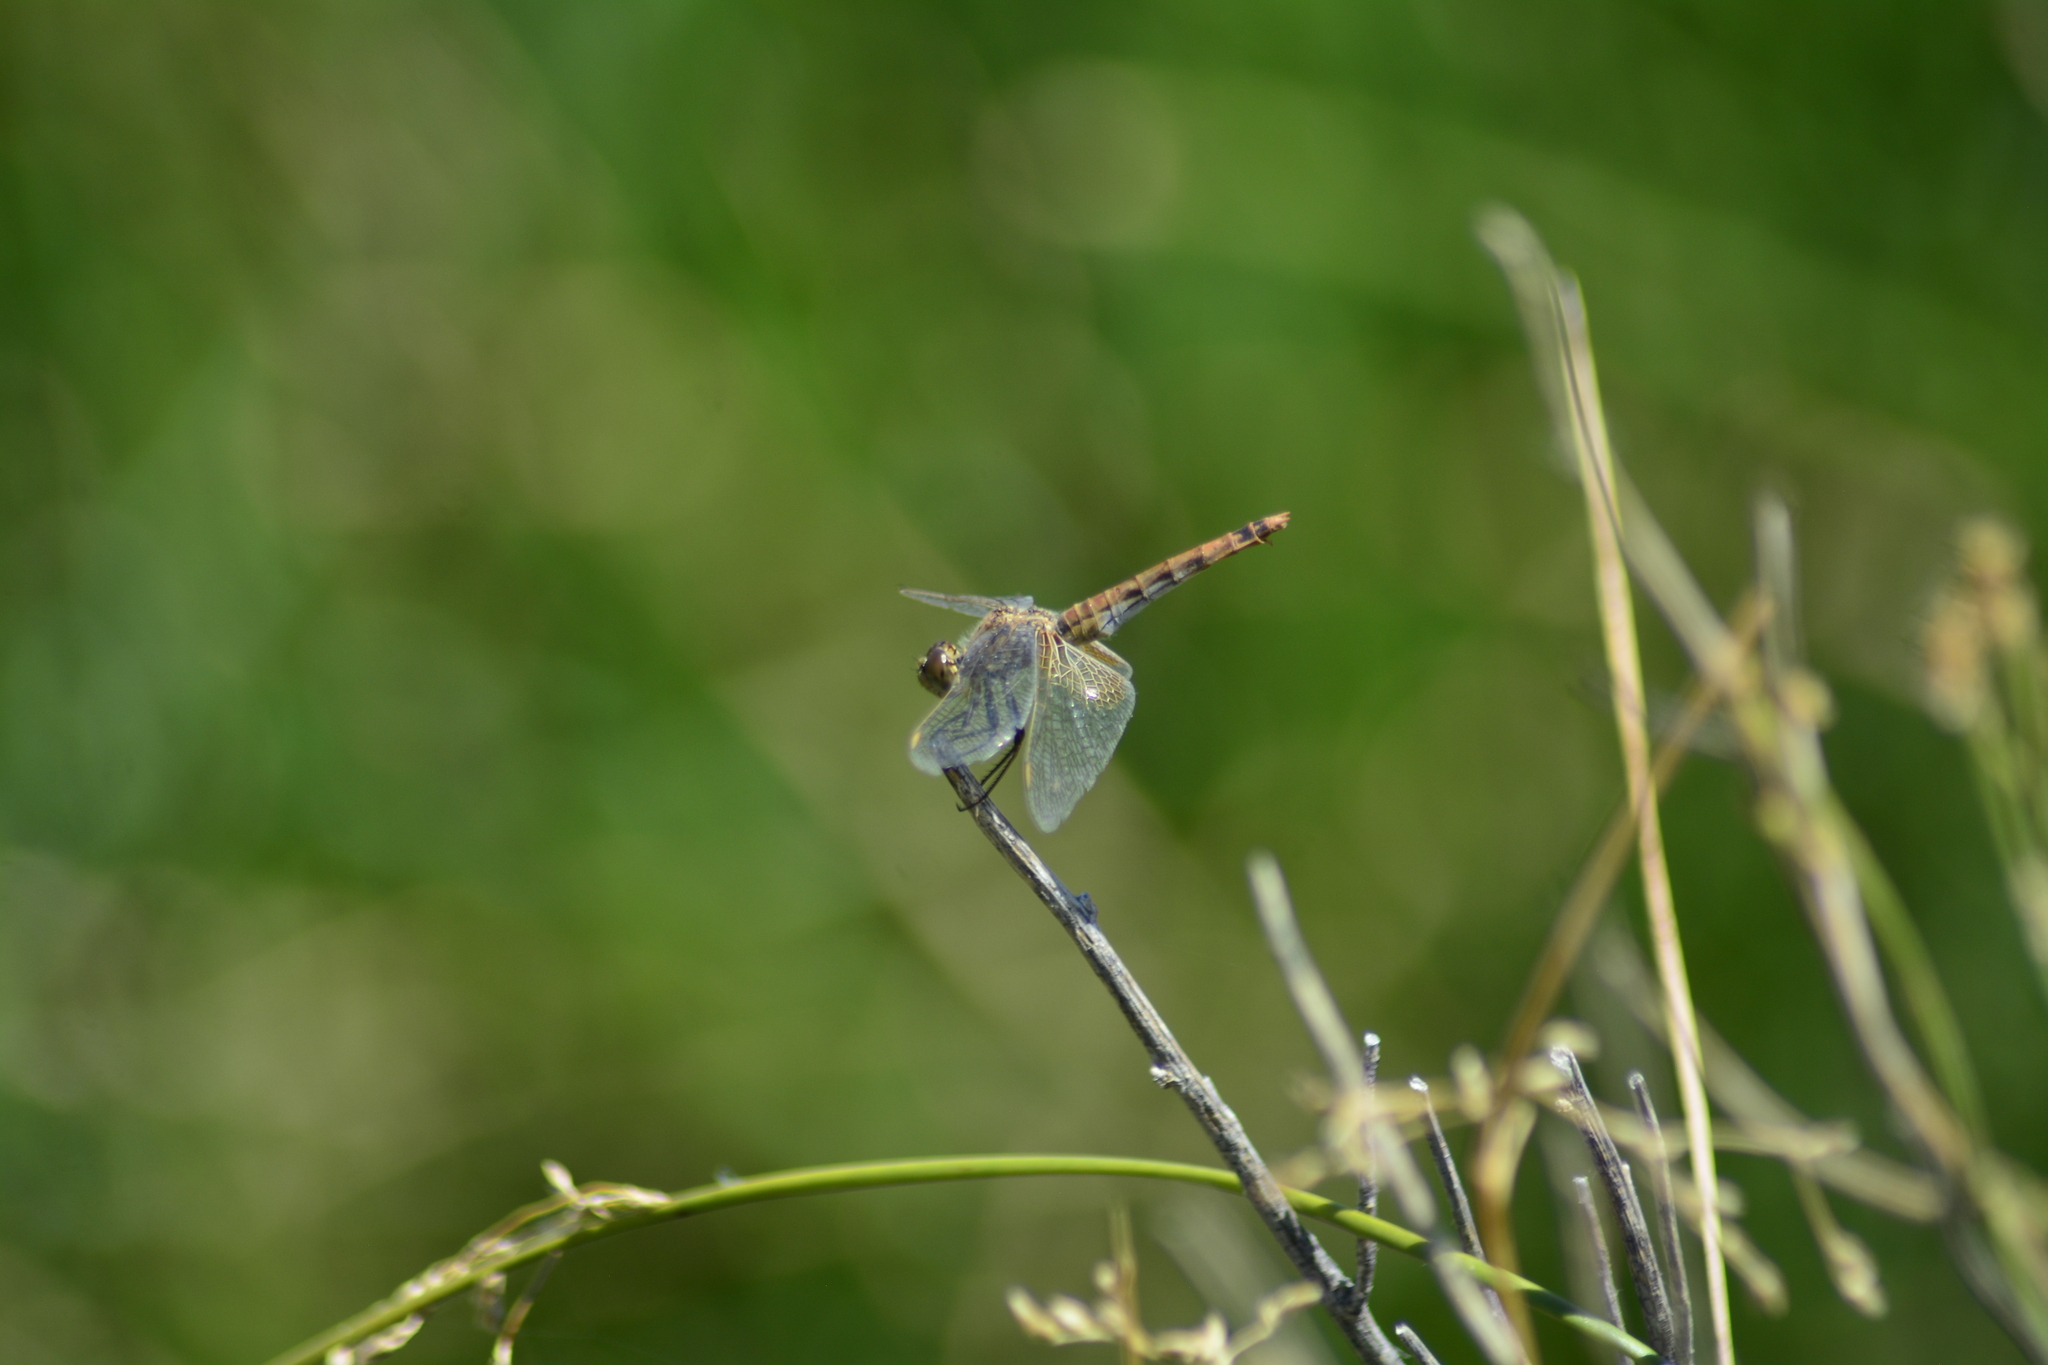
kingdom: Animalia
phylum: Arthropoda
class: Insecta
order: Odonata
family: Libellulidae
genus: Erythrodiplax
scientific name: Erythrodiplax corallina
